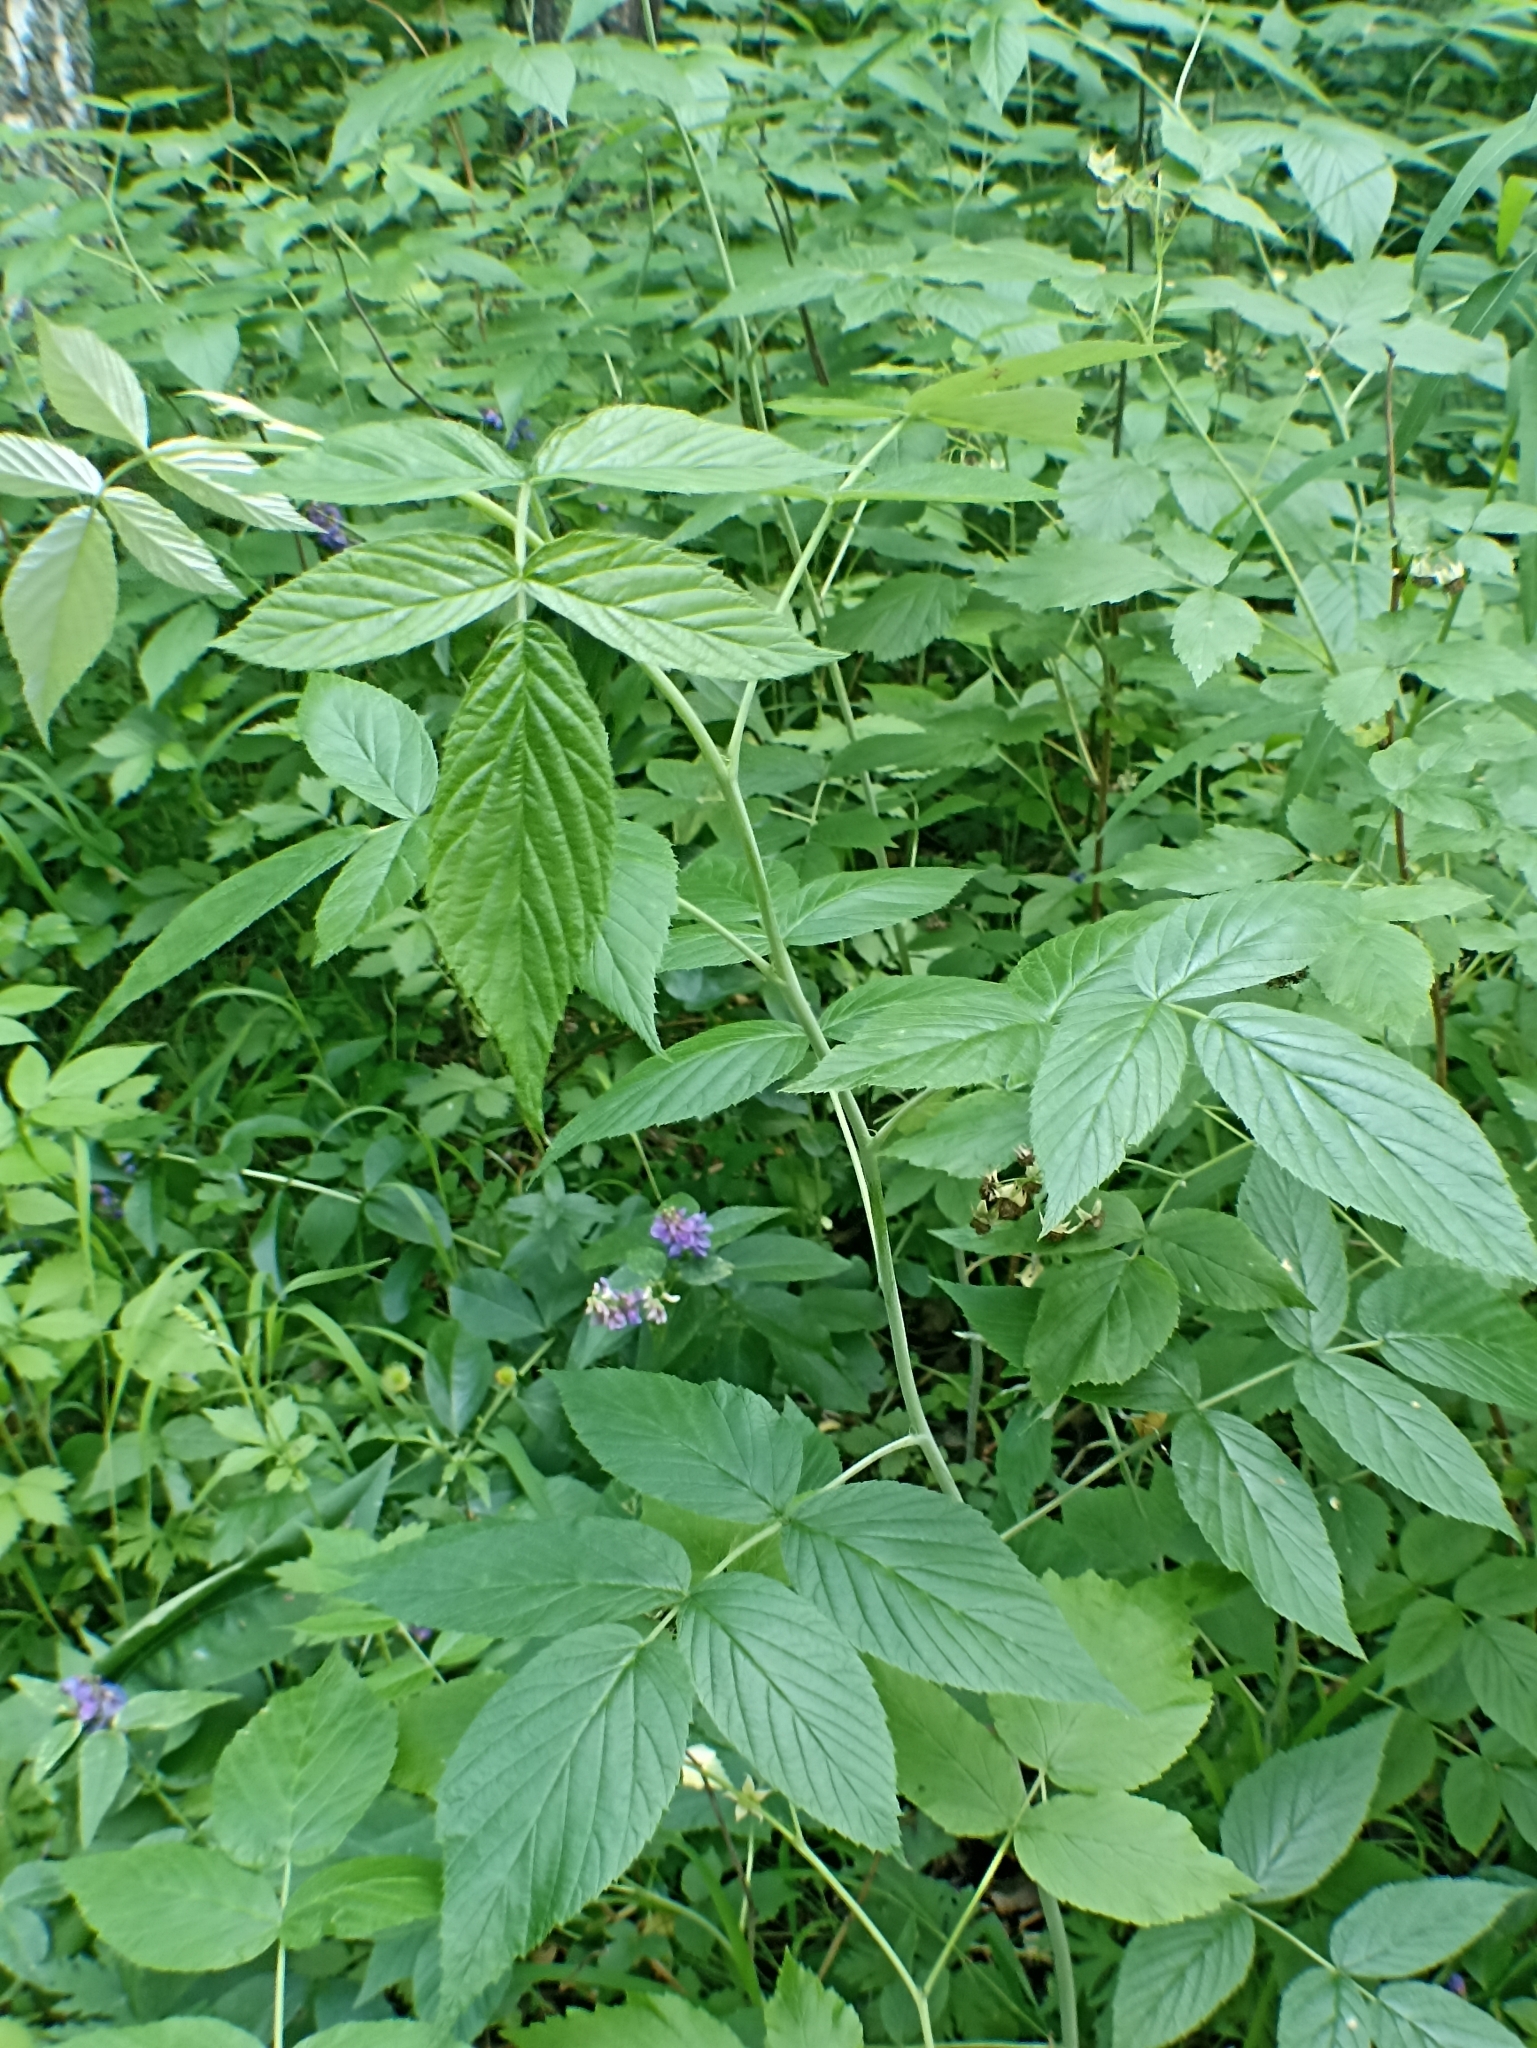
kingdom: Plantae
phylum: Tracheophyta
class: Magnoliopsida
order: Rosales
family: Rosaceae
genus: Rubus
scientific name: Rubus idaeus
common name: Raspberry
